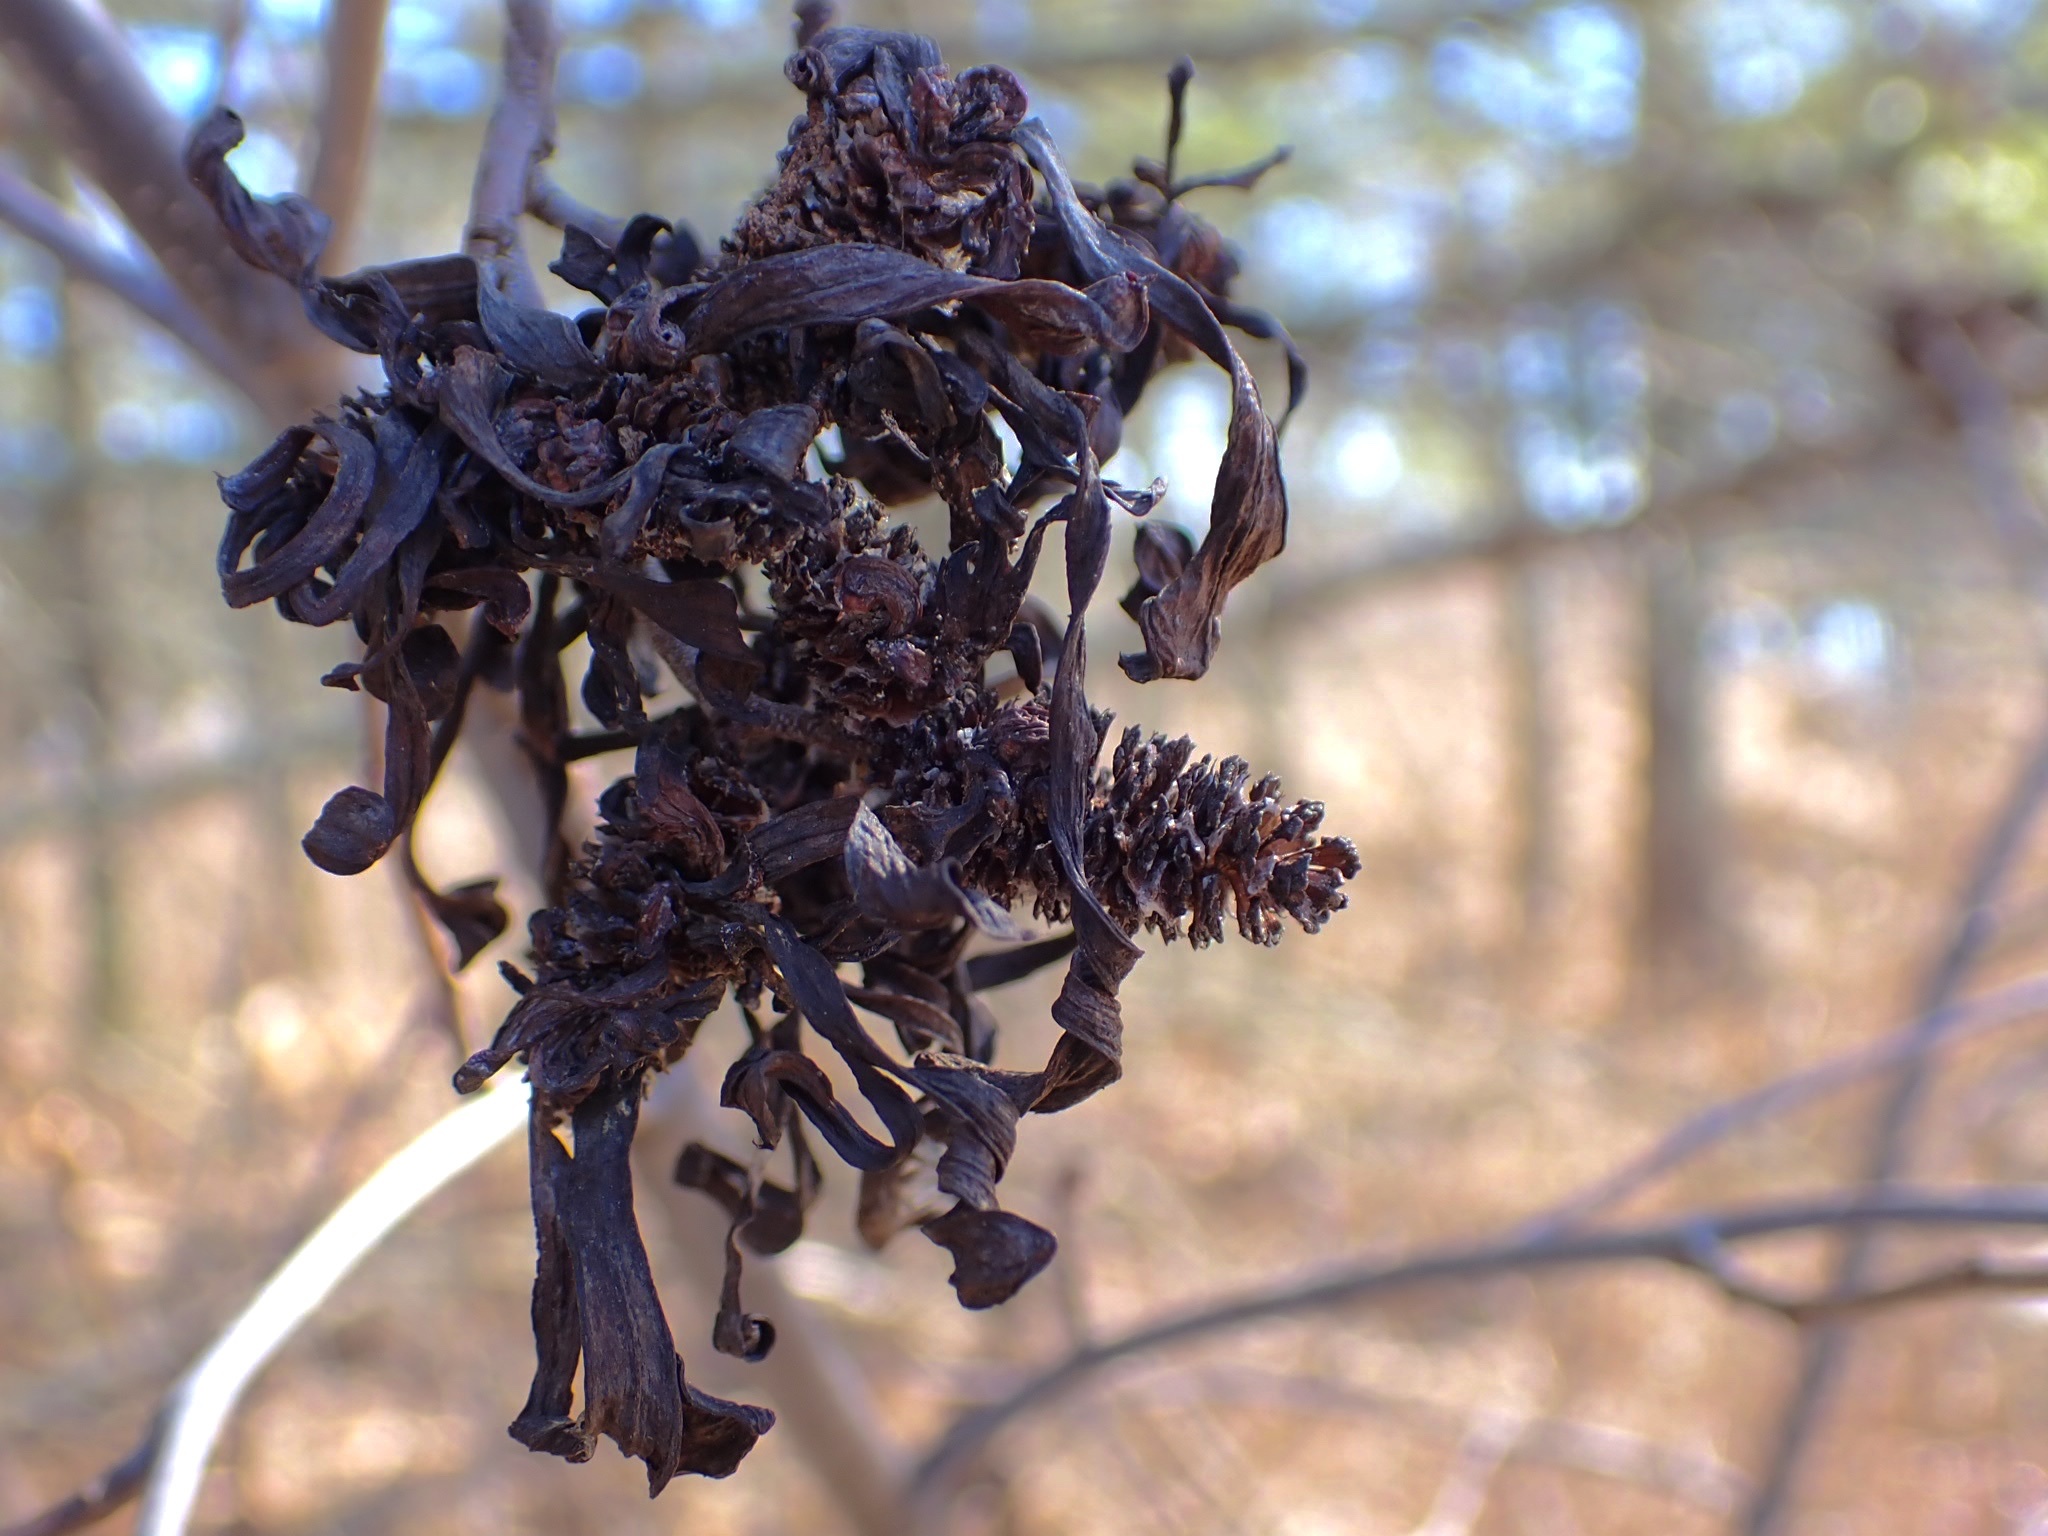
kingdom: Plantae
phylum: Tracheophyta
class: Magnoliopsida
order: Fagales
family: Betulaceae
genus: Alnus
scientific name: Alnus incana
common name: Grey alder
